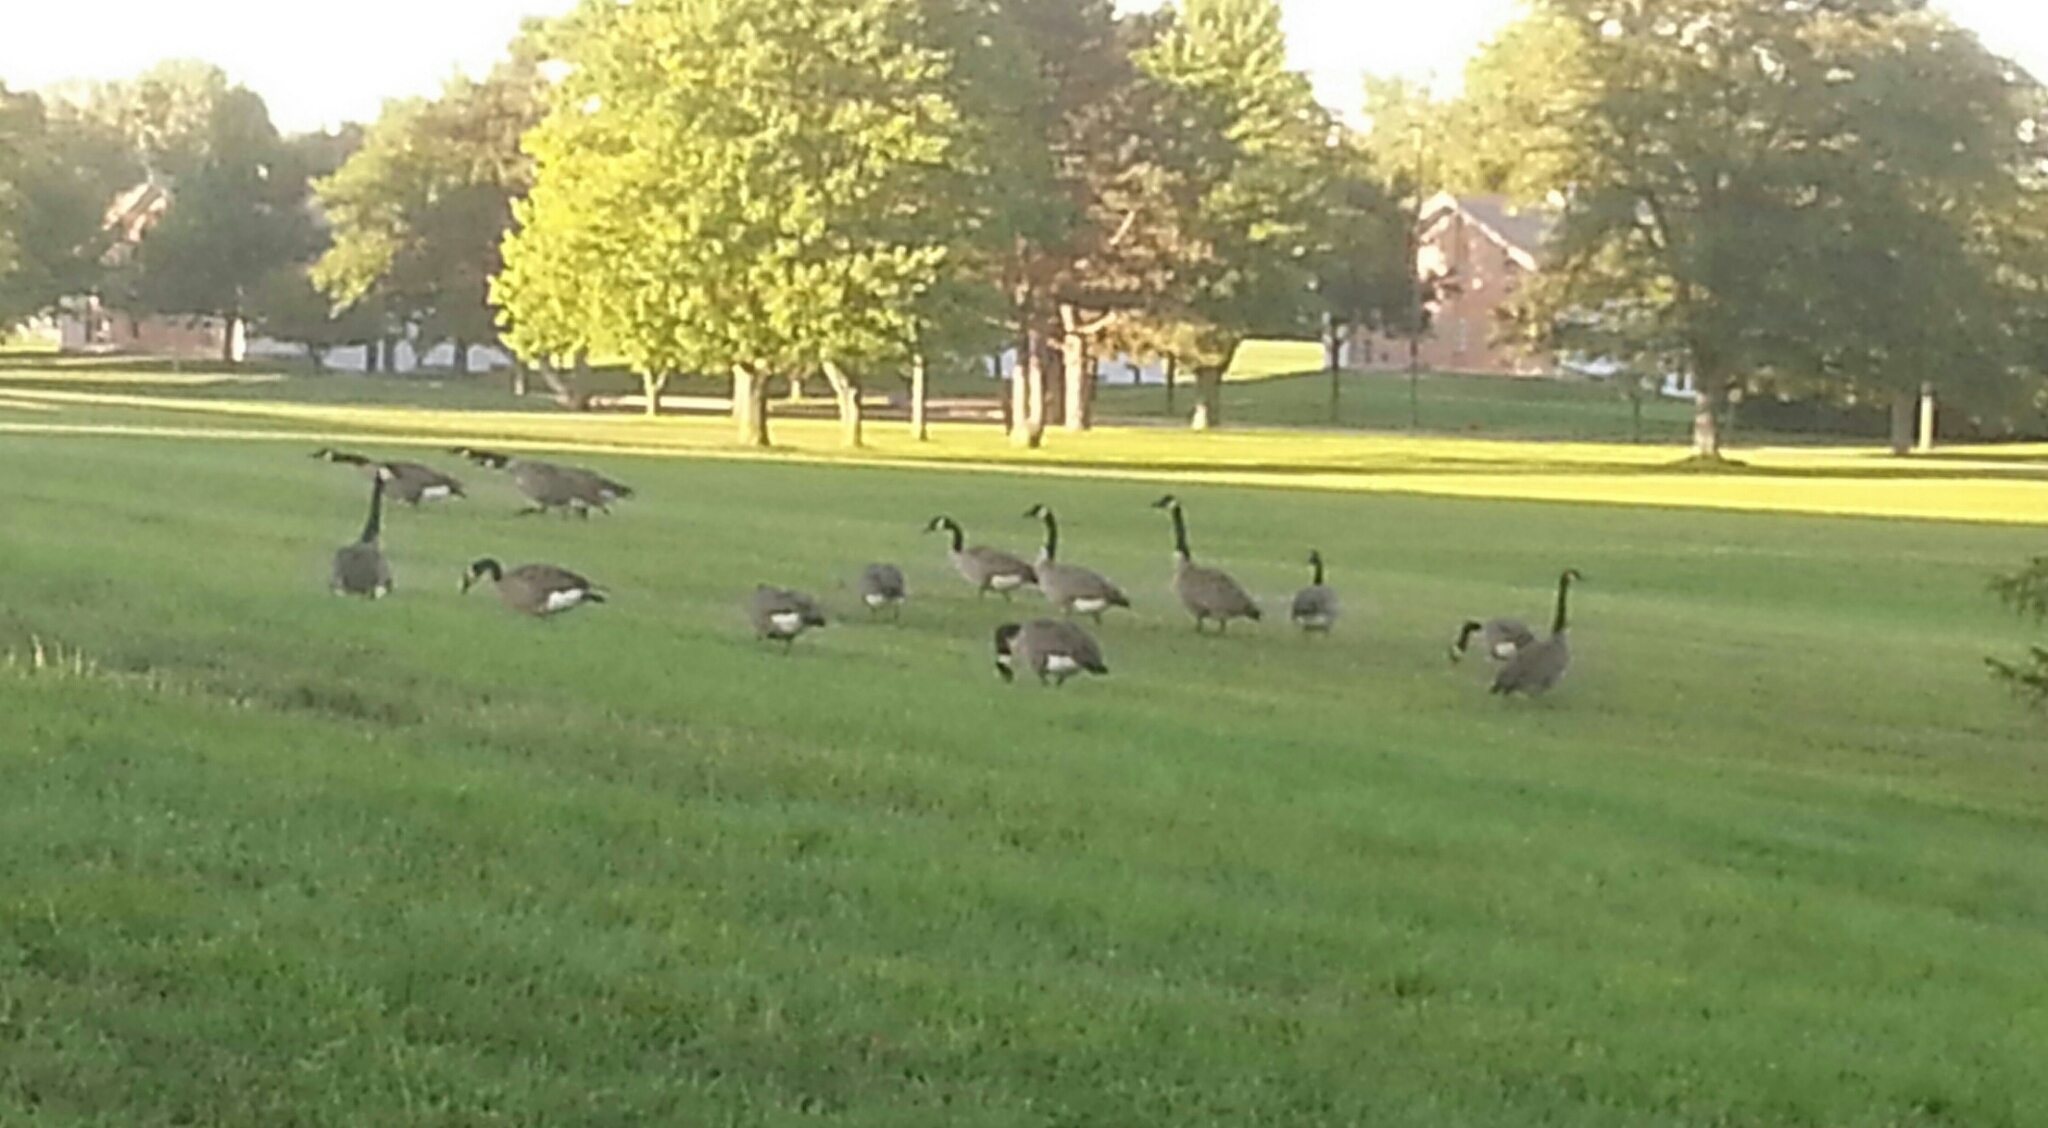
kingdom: Animalia
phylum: Chordata
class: Aves
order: Anseriformes
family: Anatidae
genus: Branta
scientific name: Branta canadensis
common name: Canada goose
